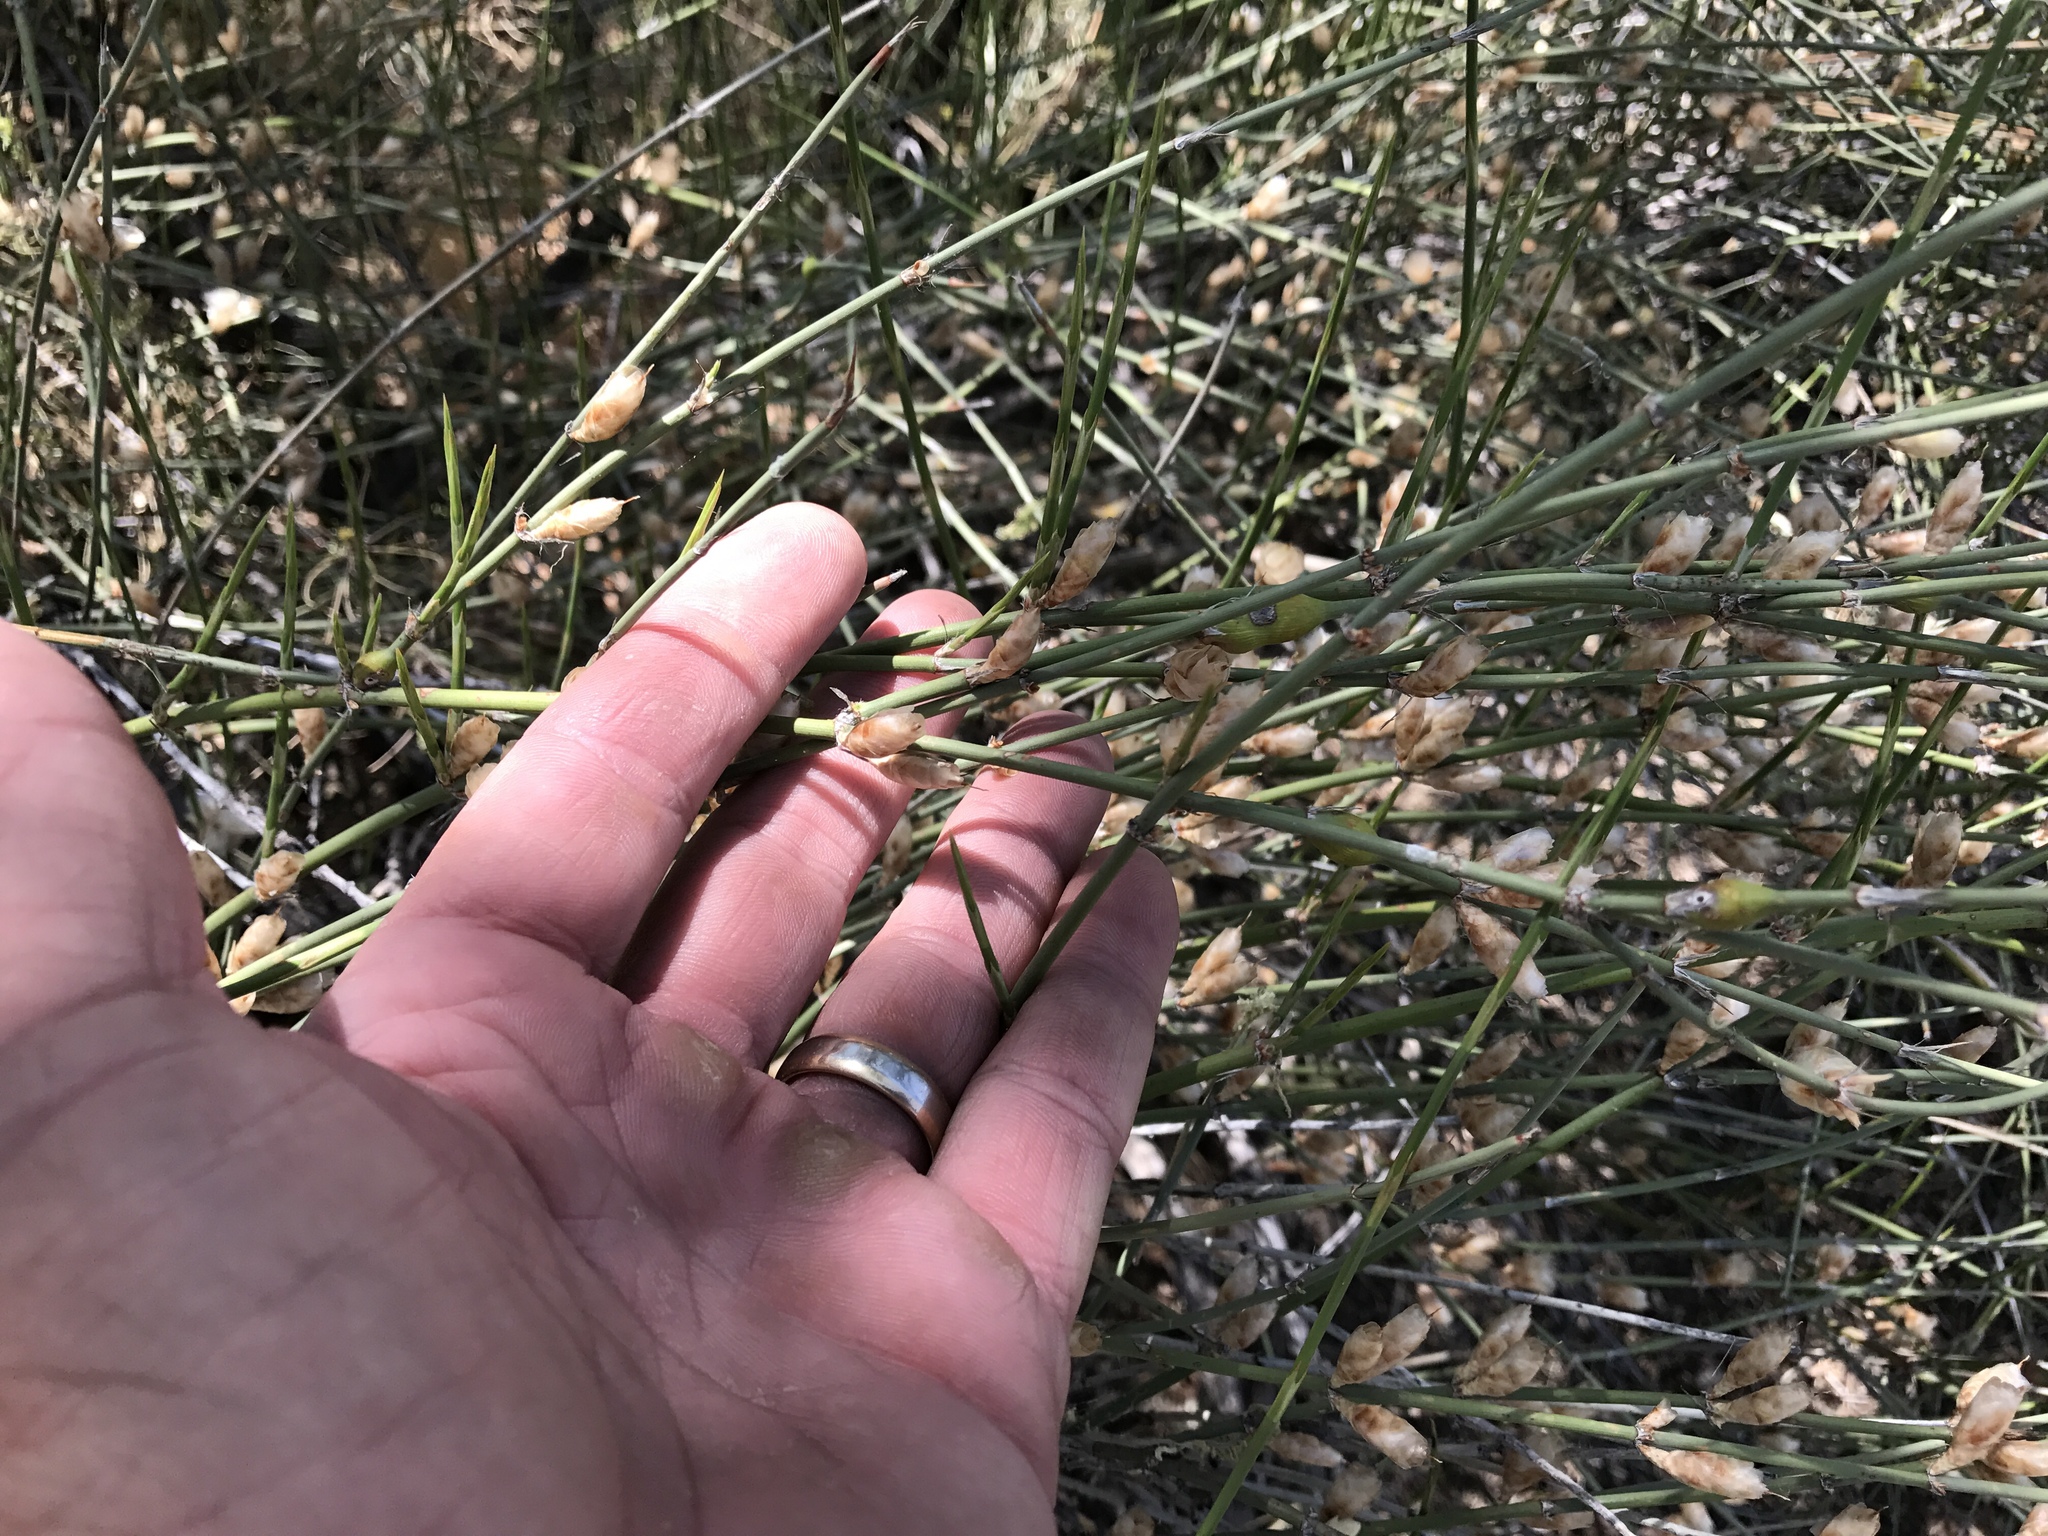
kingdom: Plantae
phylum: Tracheophyta
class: Gnetopsida
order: Ephedrales
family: Ephedraceae
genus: Ephedra
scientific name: Ephedra trifurca
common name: Mexican-tea
